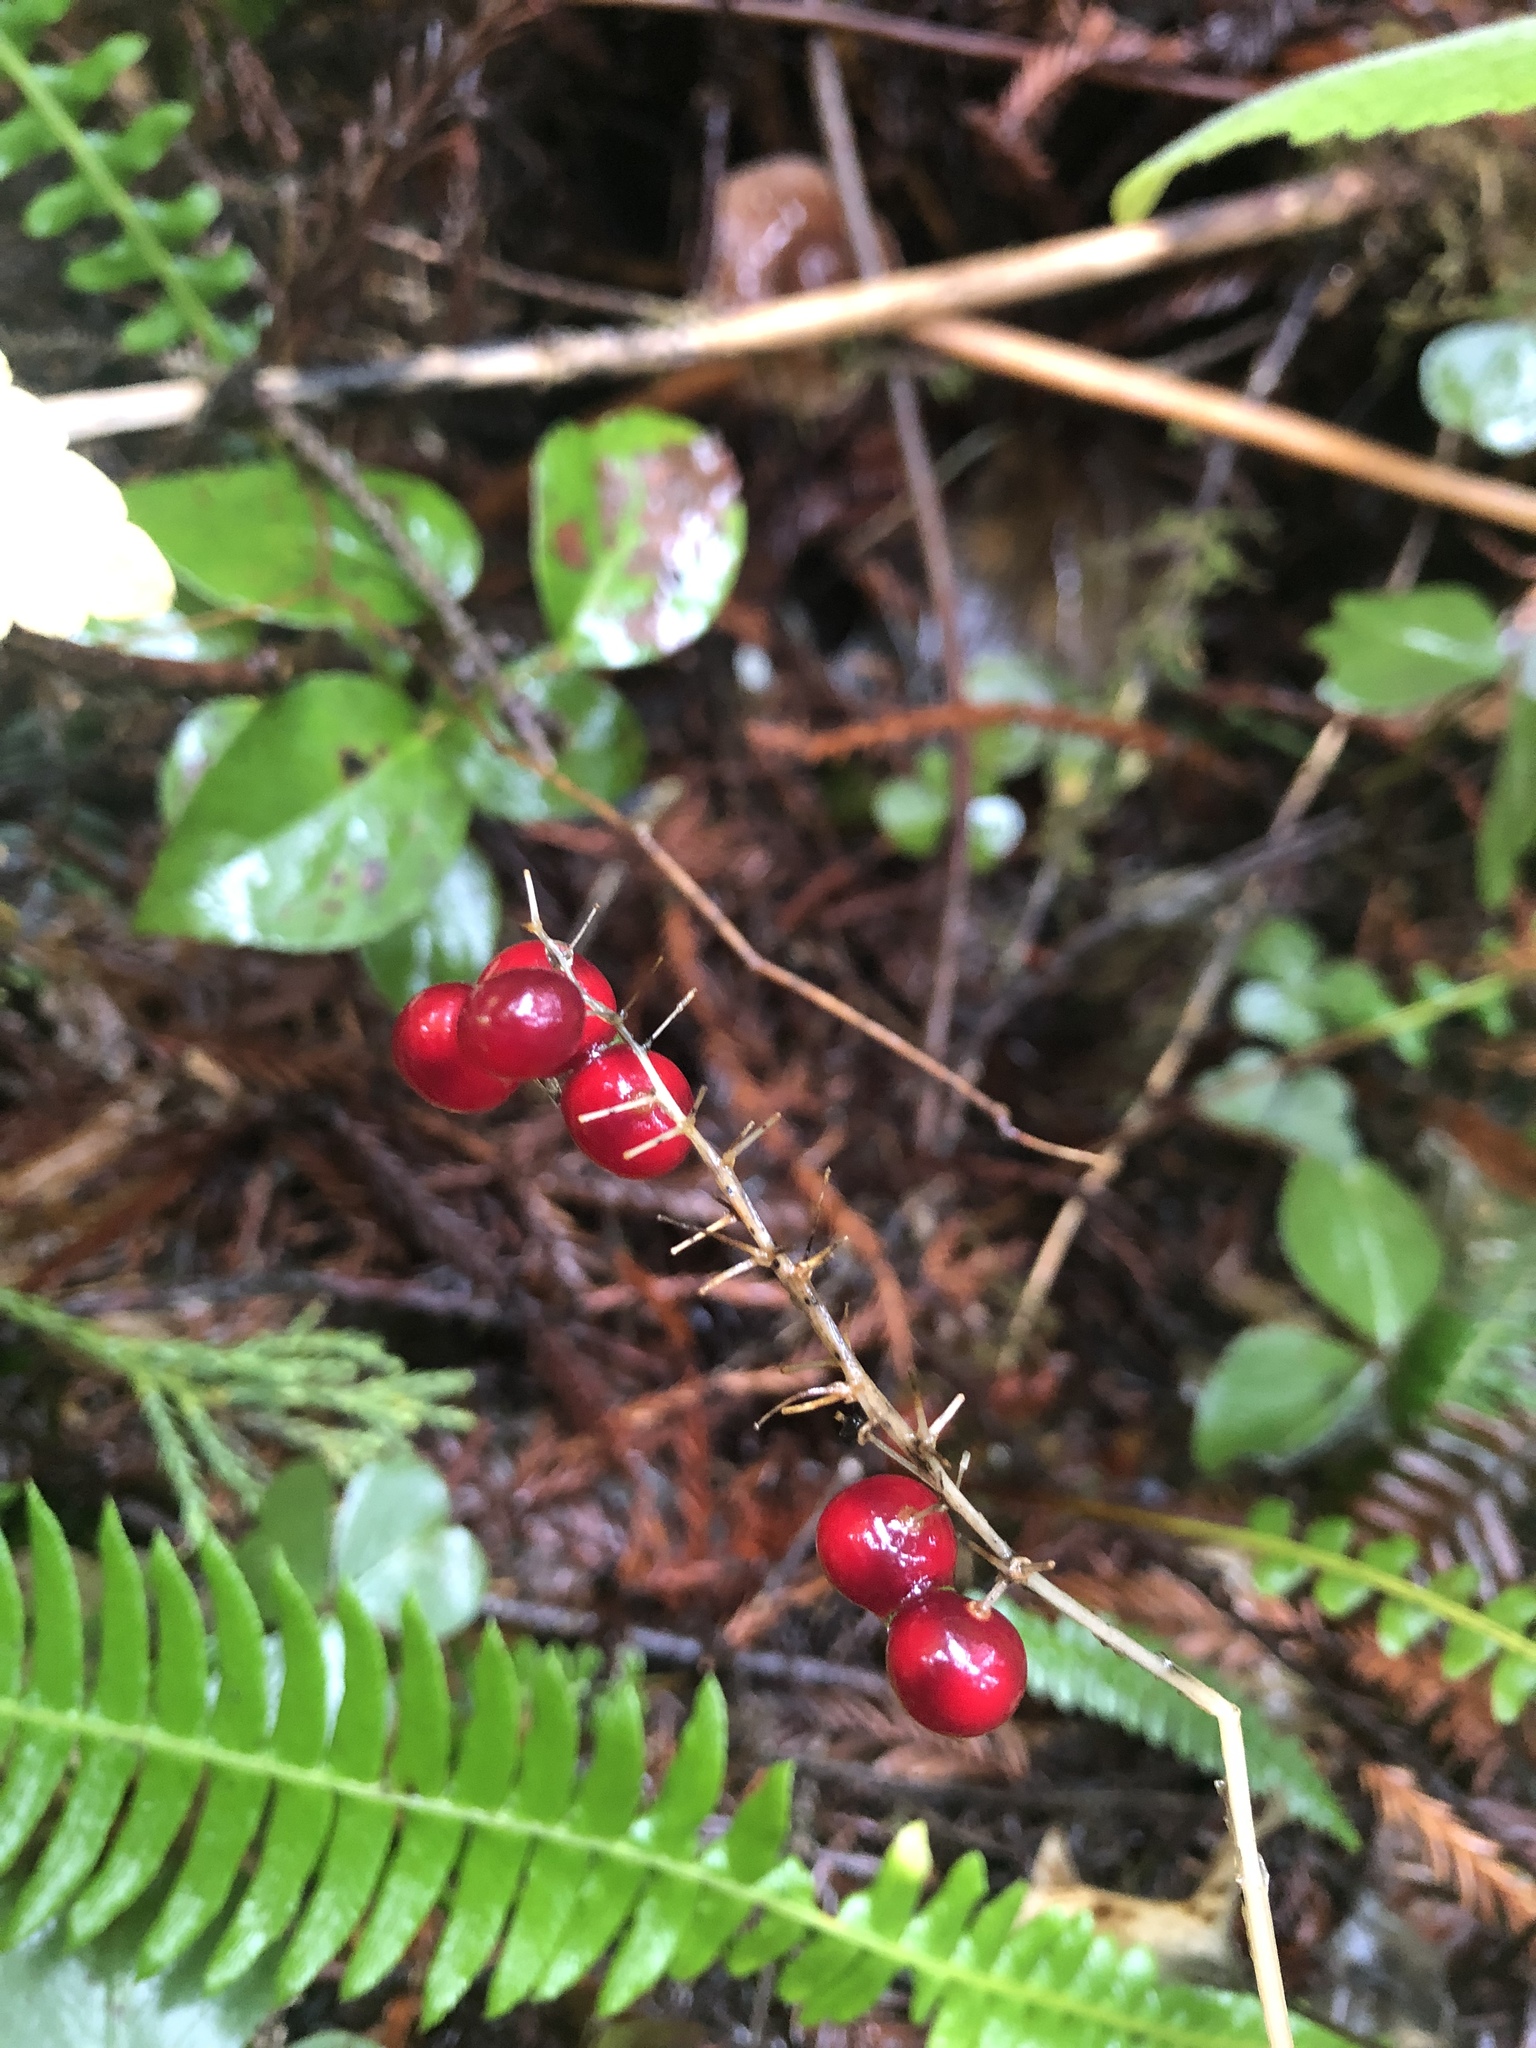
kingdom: Plantae
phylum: Tracheophyta
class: Liliopsida
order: Asparagales
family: Asparagaceae
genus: Maianthemum
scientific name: Maianthemum dilatatum
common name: False lily-of-the-valley
